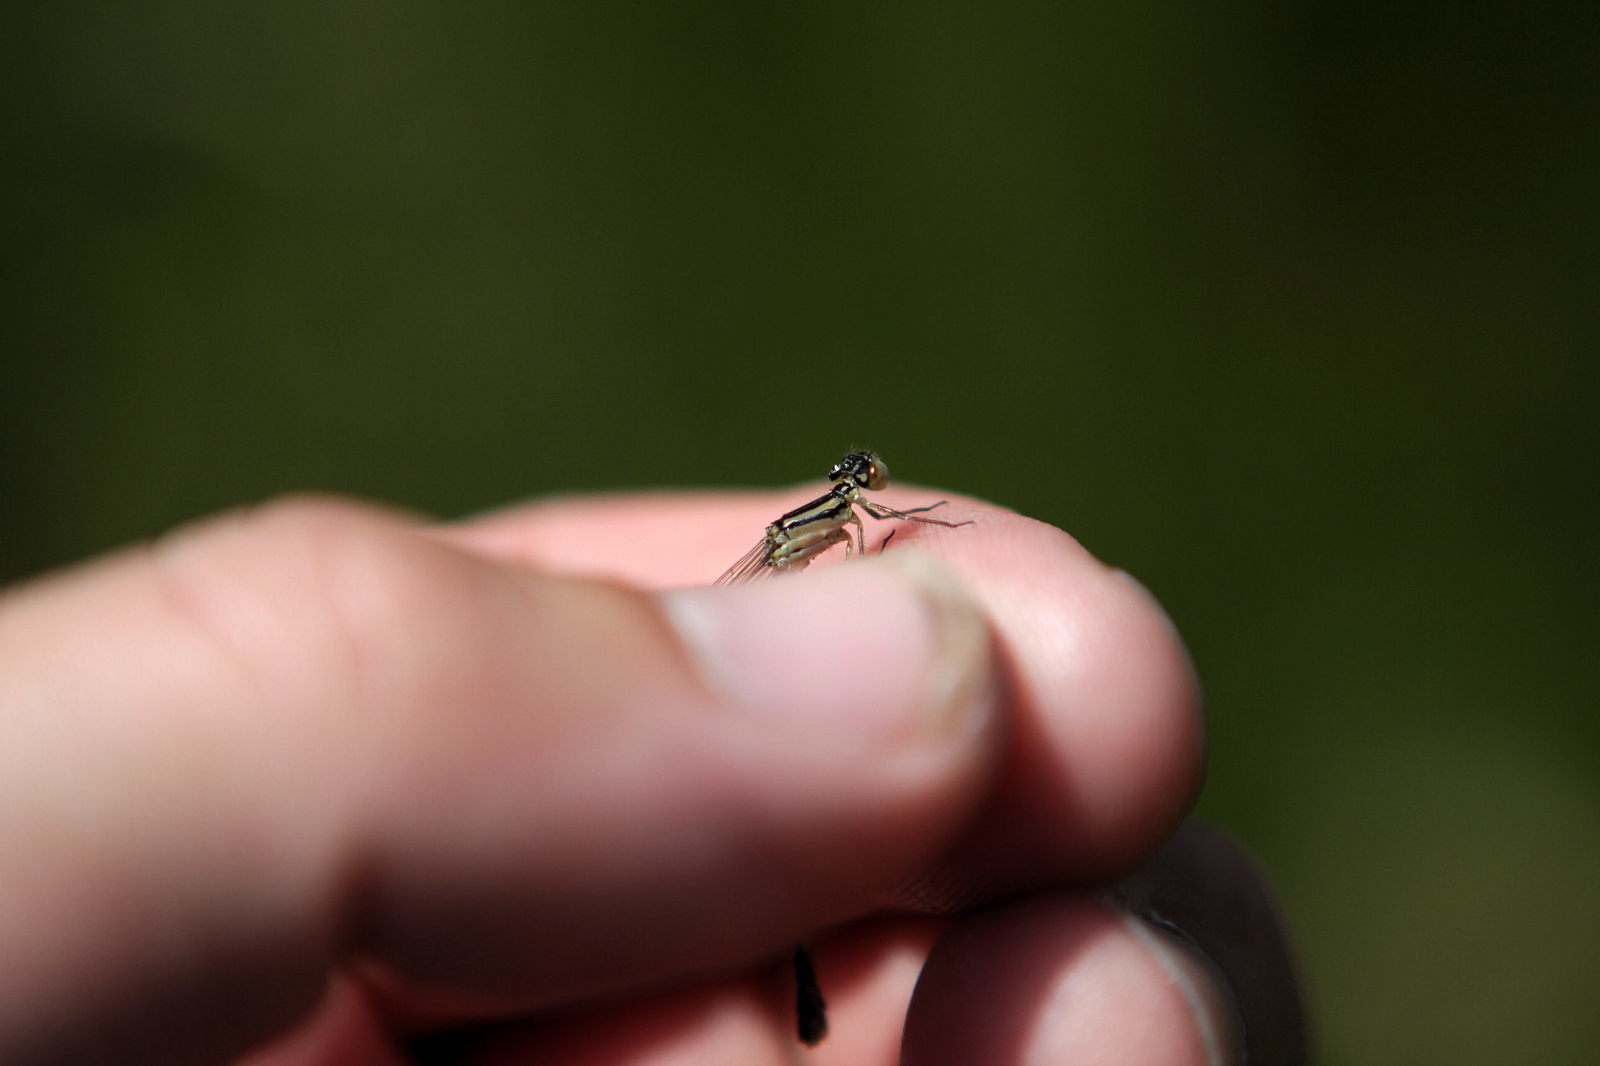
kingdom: Animalia
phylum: Arthropoda
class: Insecta
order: Odonata
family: Coenagrionidae
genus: Enallagma
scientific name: Enallagma cyathigerum
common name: Common blue damselfly
